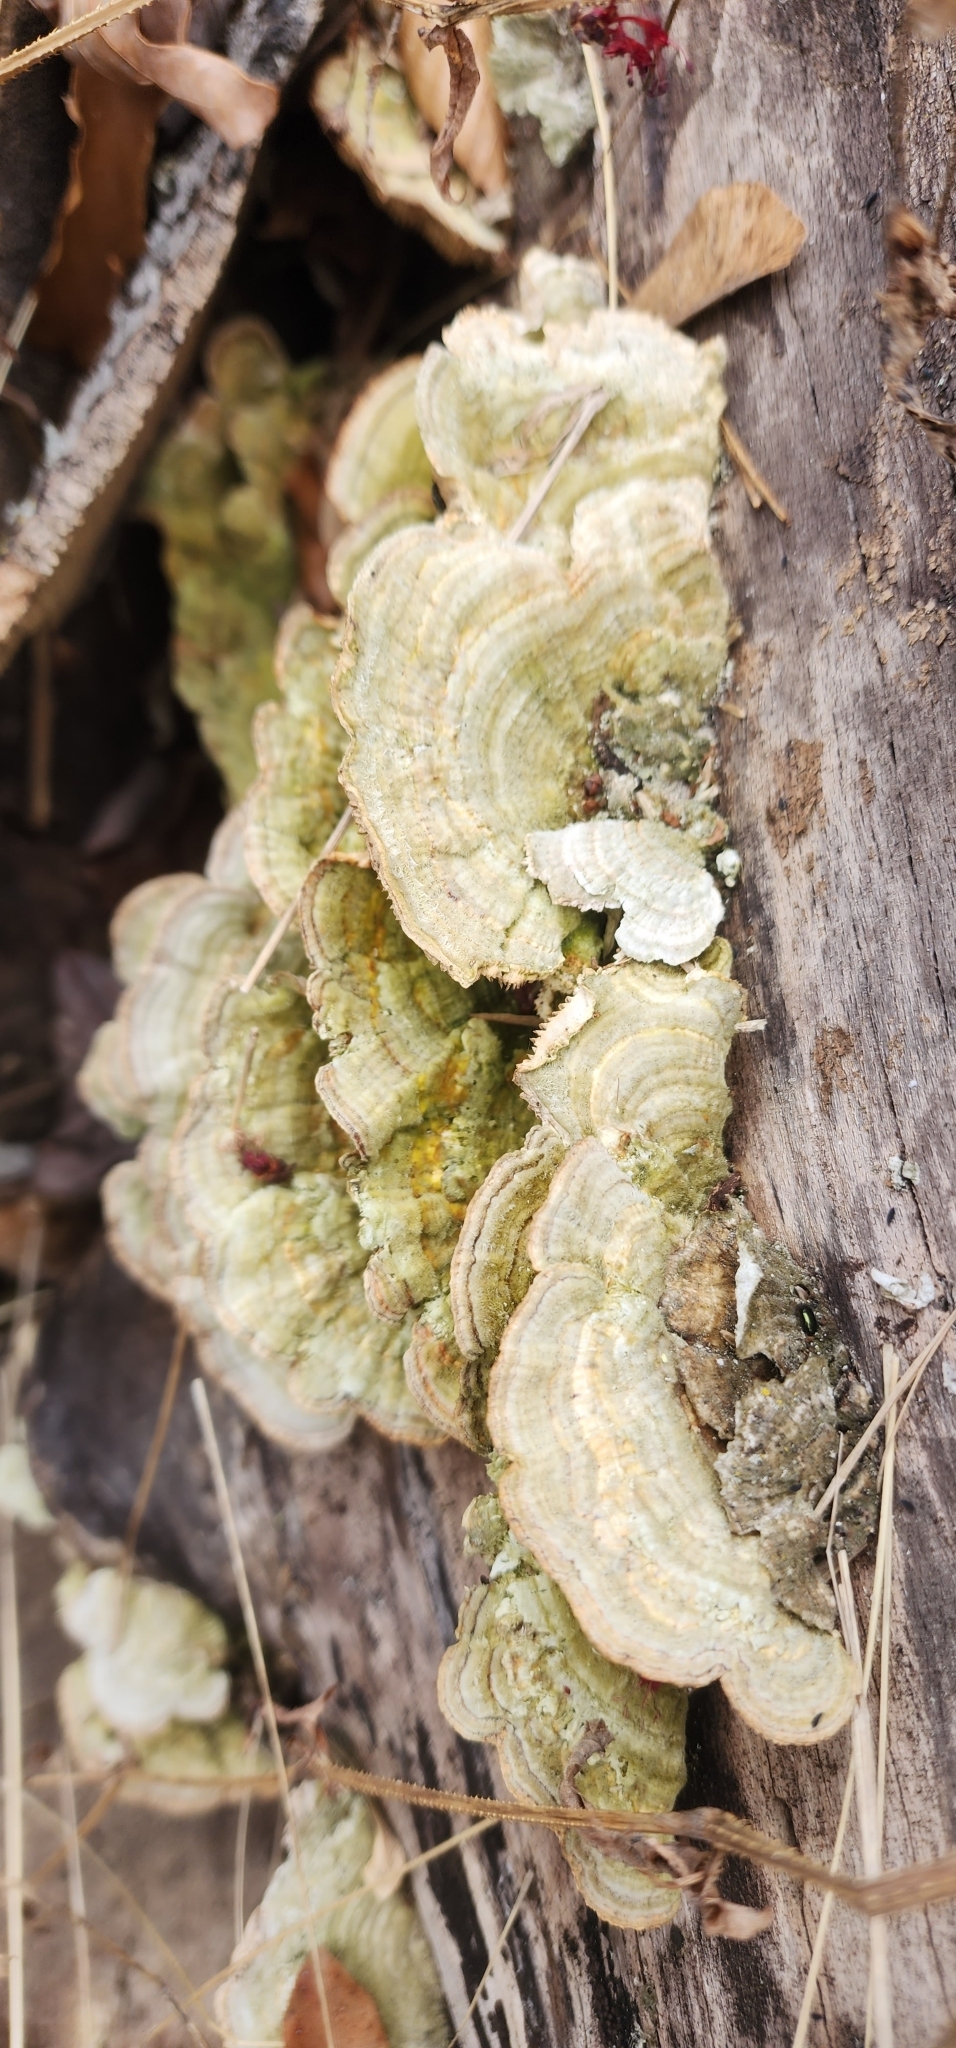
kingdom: Fungi
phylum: Basidiomycota
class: Agaricomycetes
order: Polyporales
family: Polyporaceae
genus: Lenzites
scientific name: Lenzites betulinus
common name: Birch mazegill
